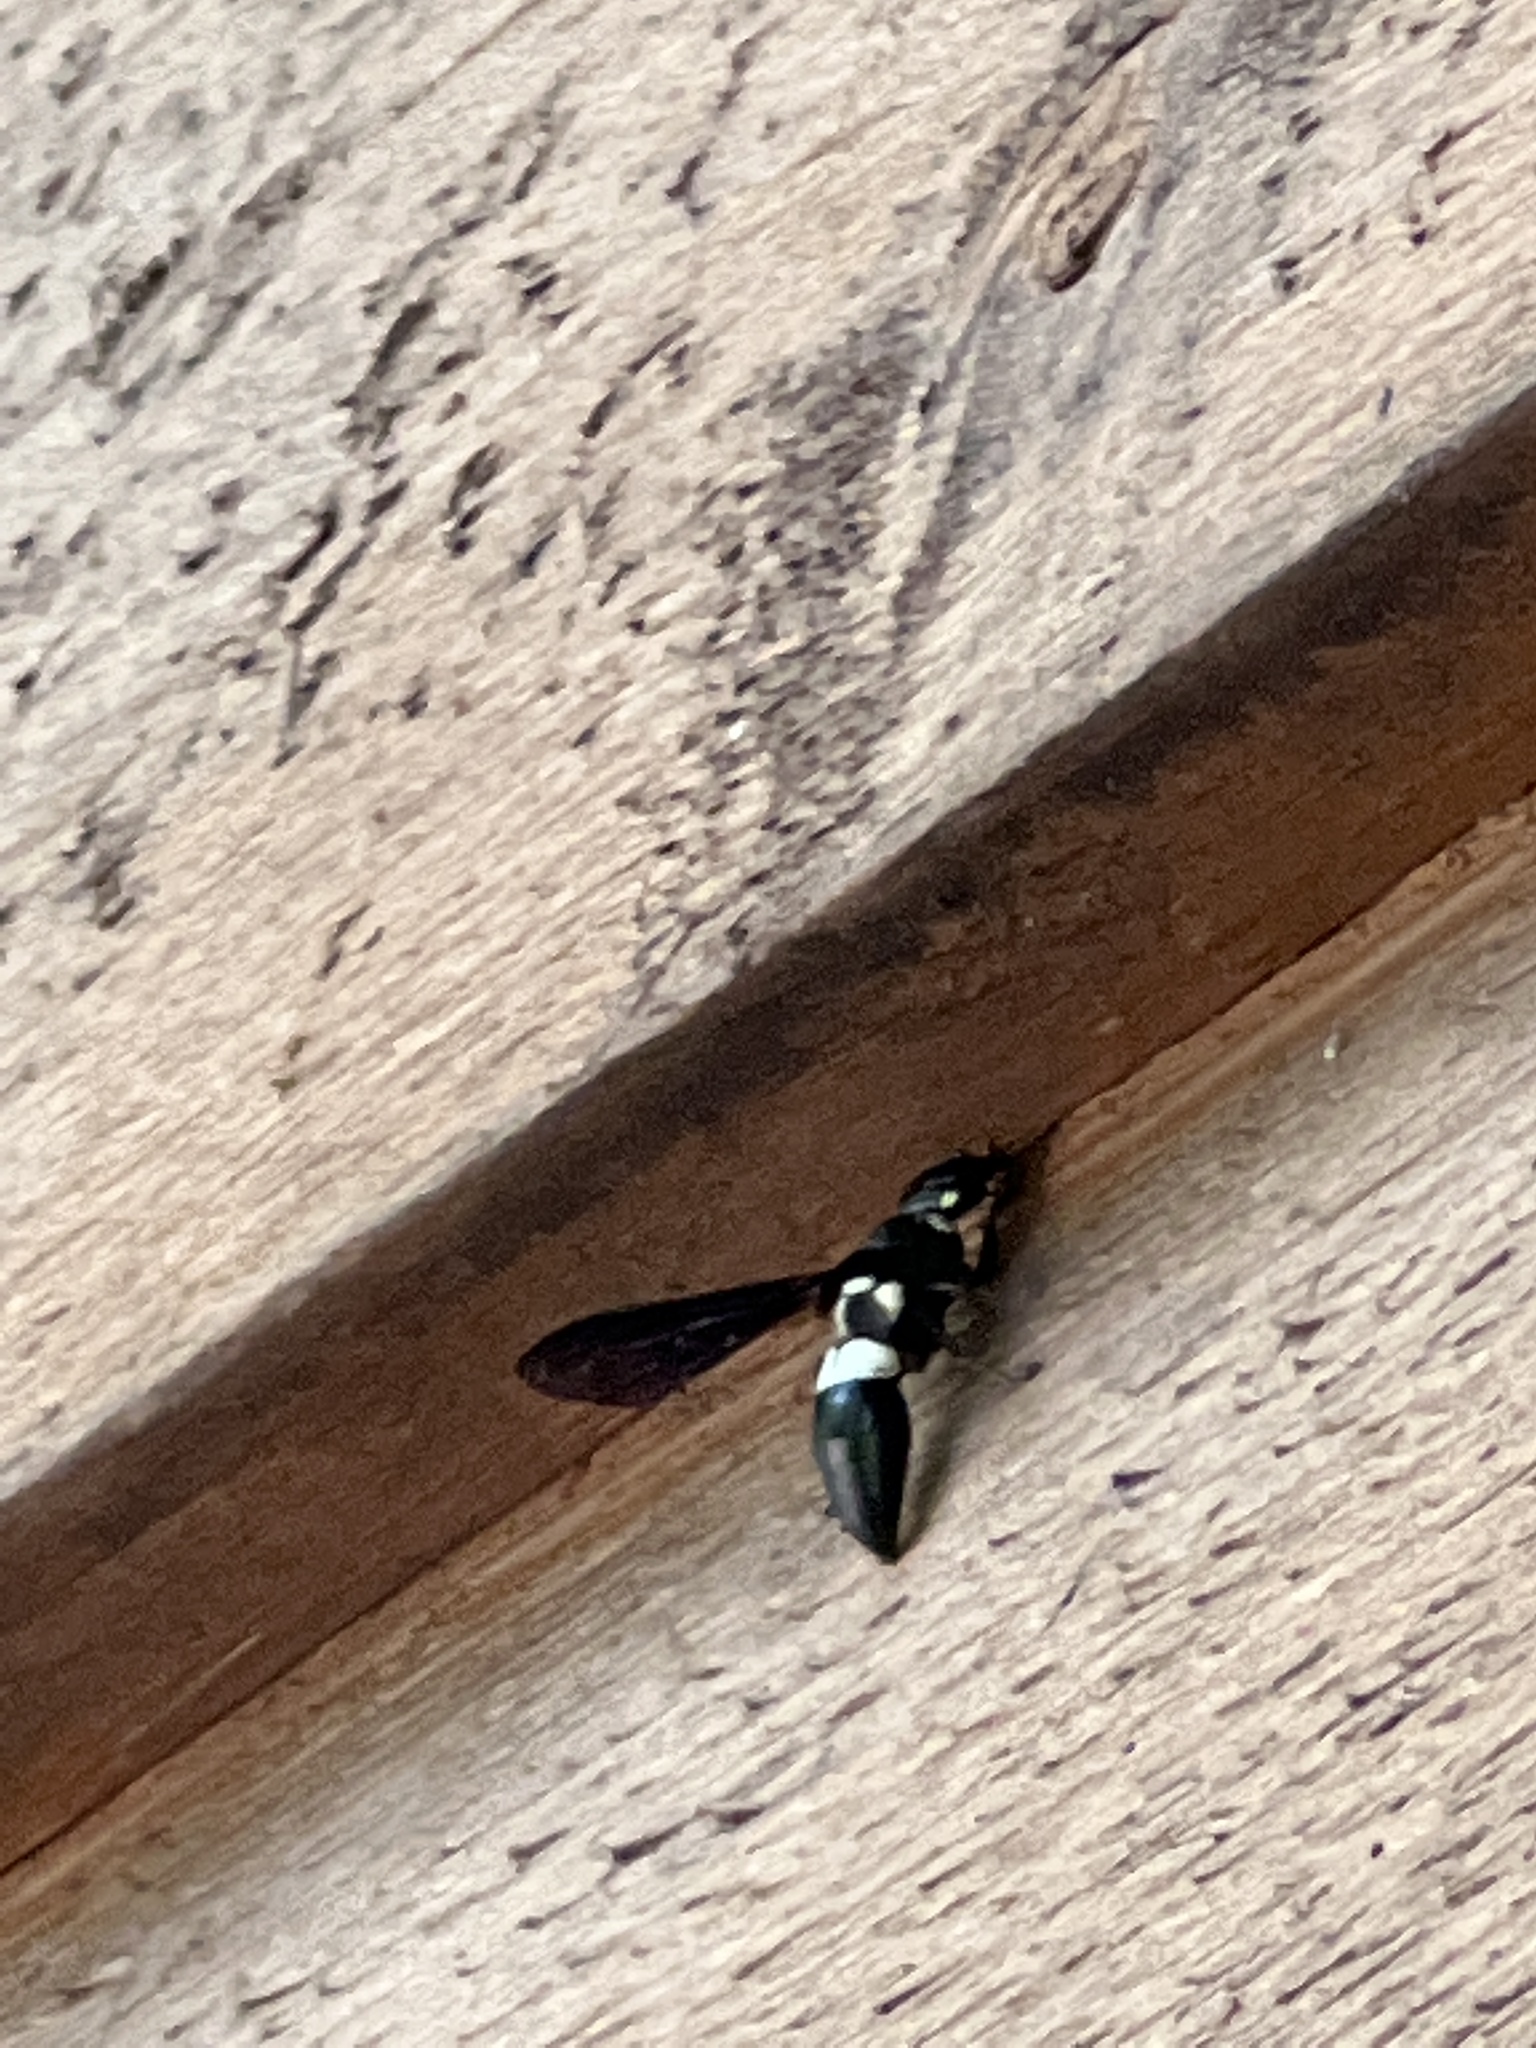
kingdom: Animalia
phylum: Arthropoda
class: Insecta
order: Hymenoptera
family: Eumenidae
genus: Monobia
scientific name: Monobia quadridens
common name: Four-toothed mason wasp
